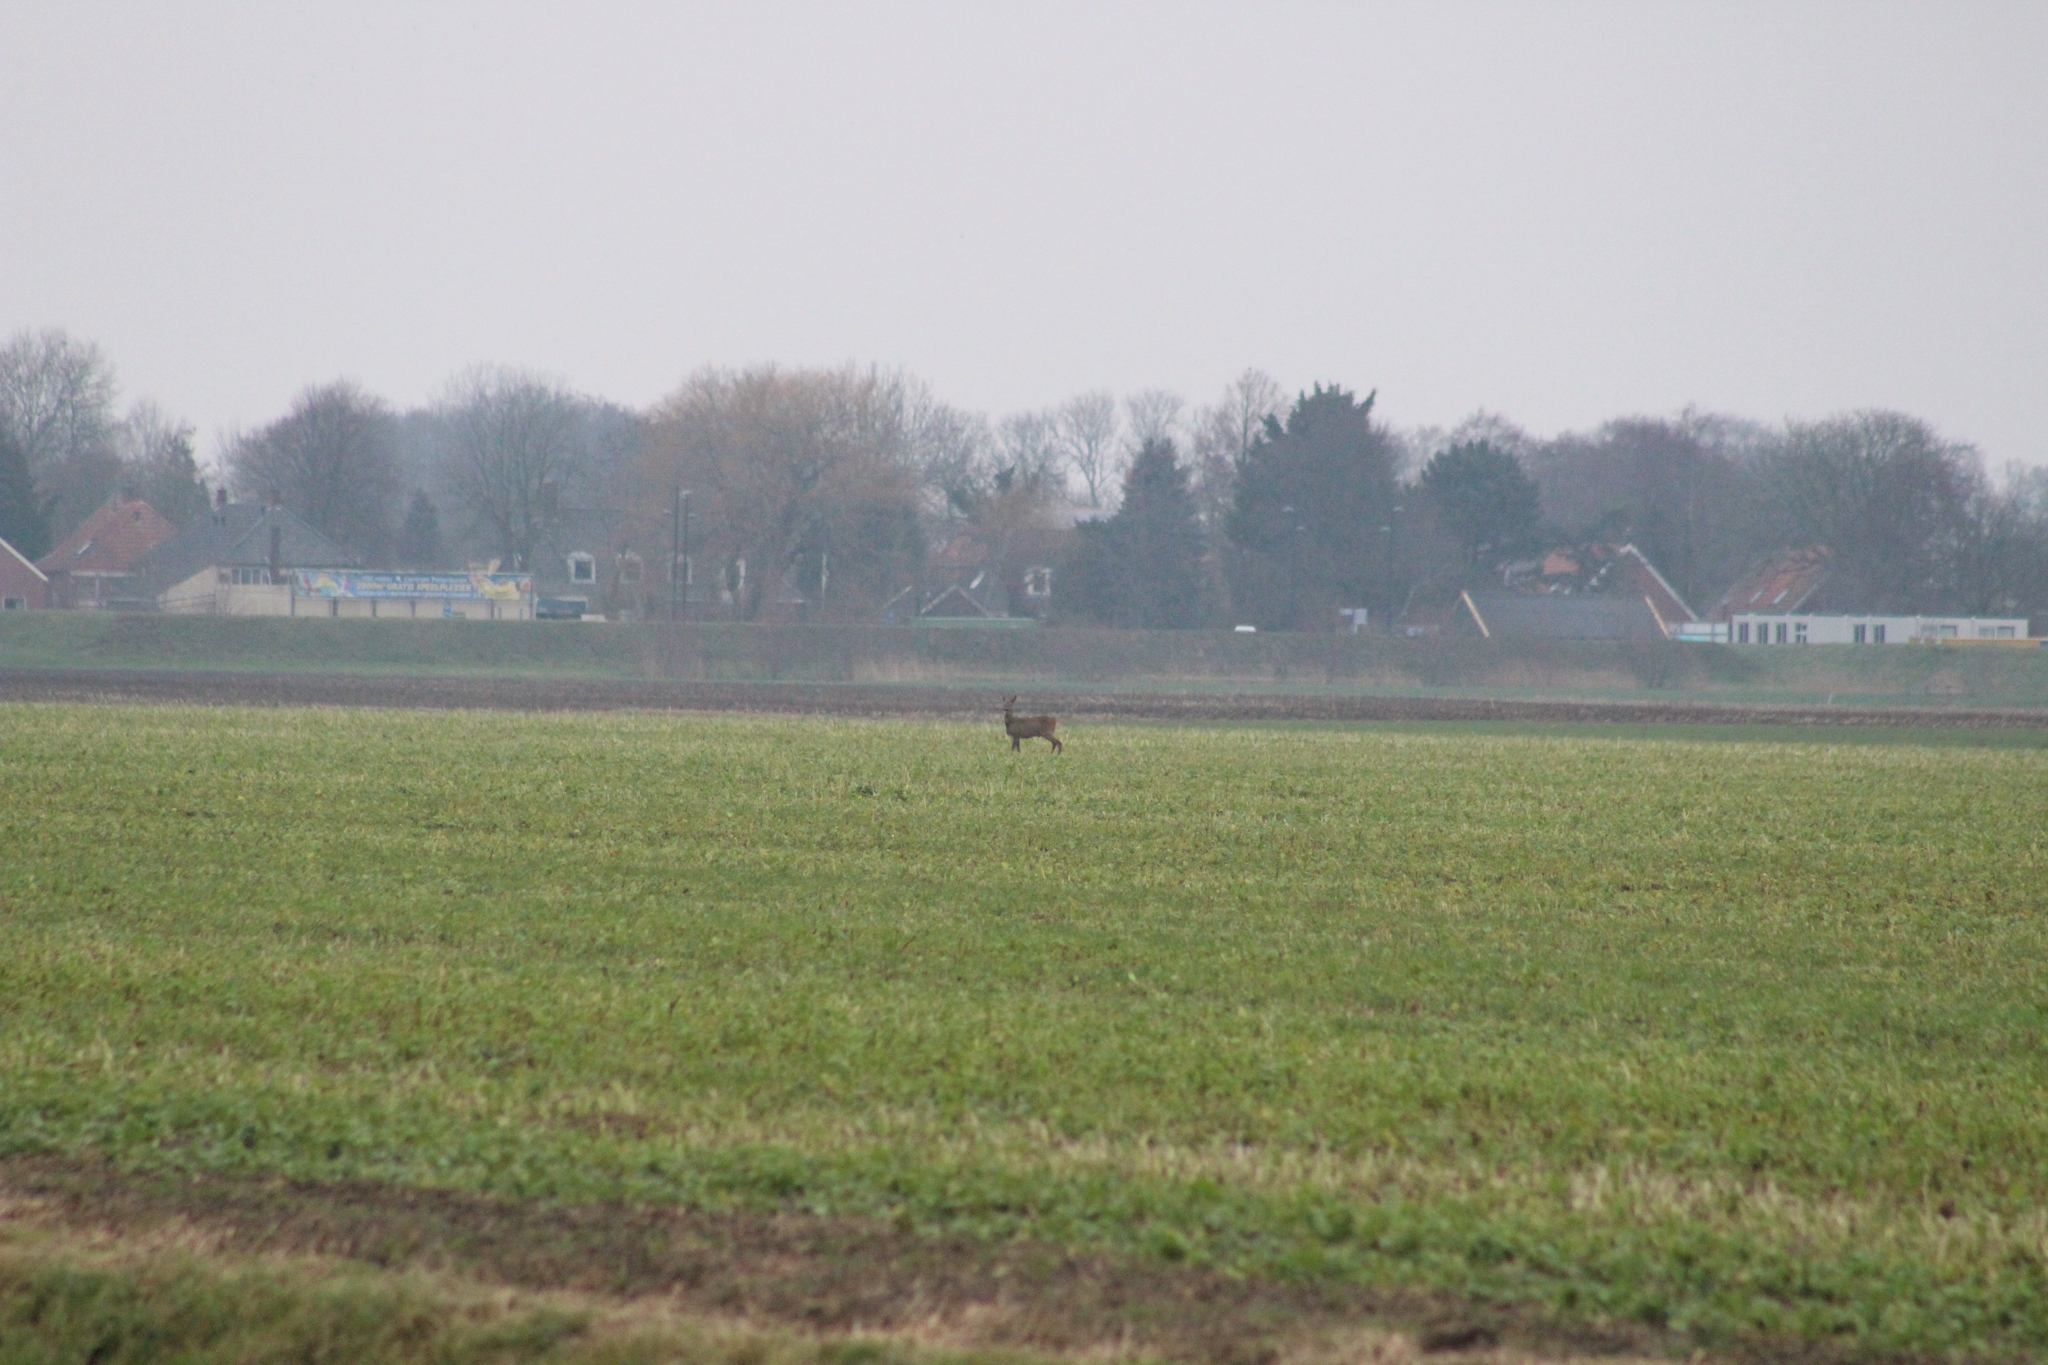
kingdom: Animalia
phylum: Chordata
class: Mammalia
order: Artiodactyla
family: Cervidae
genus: Capreolus
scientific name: Capreolus capreolus
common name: Western roe deer
